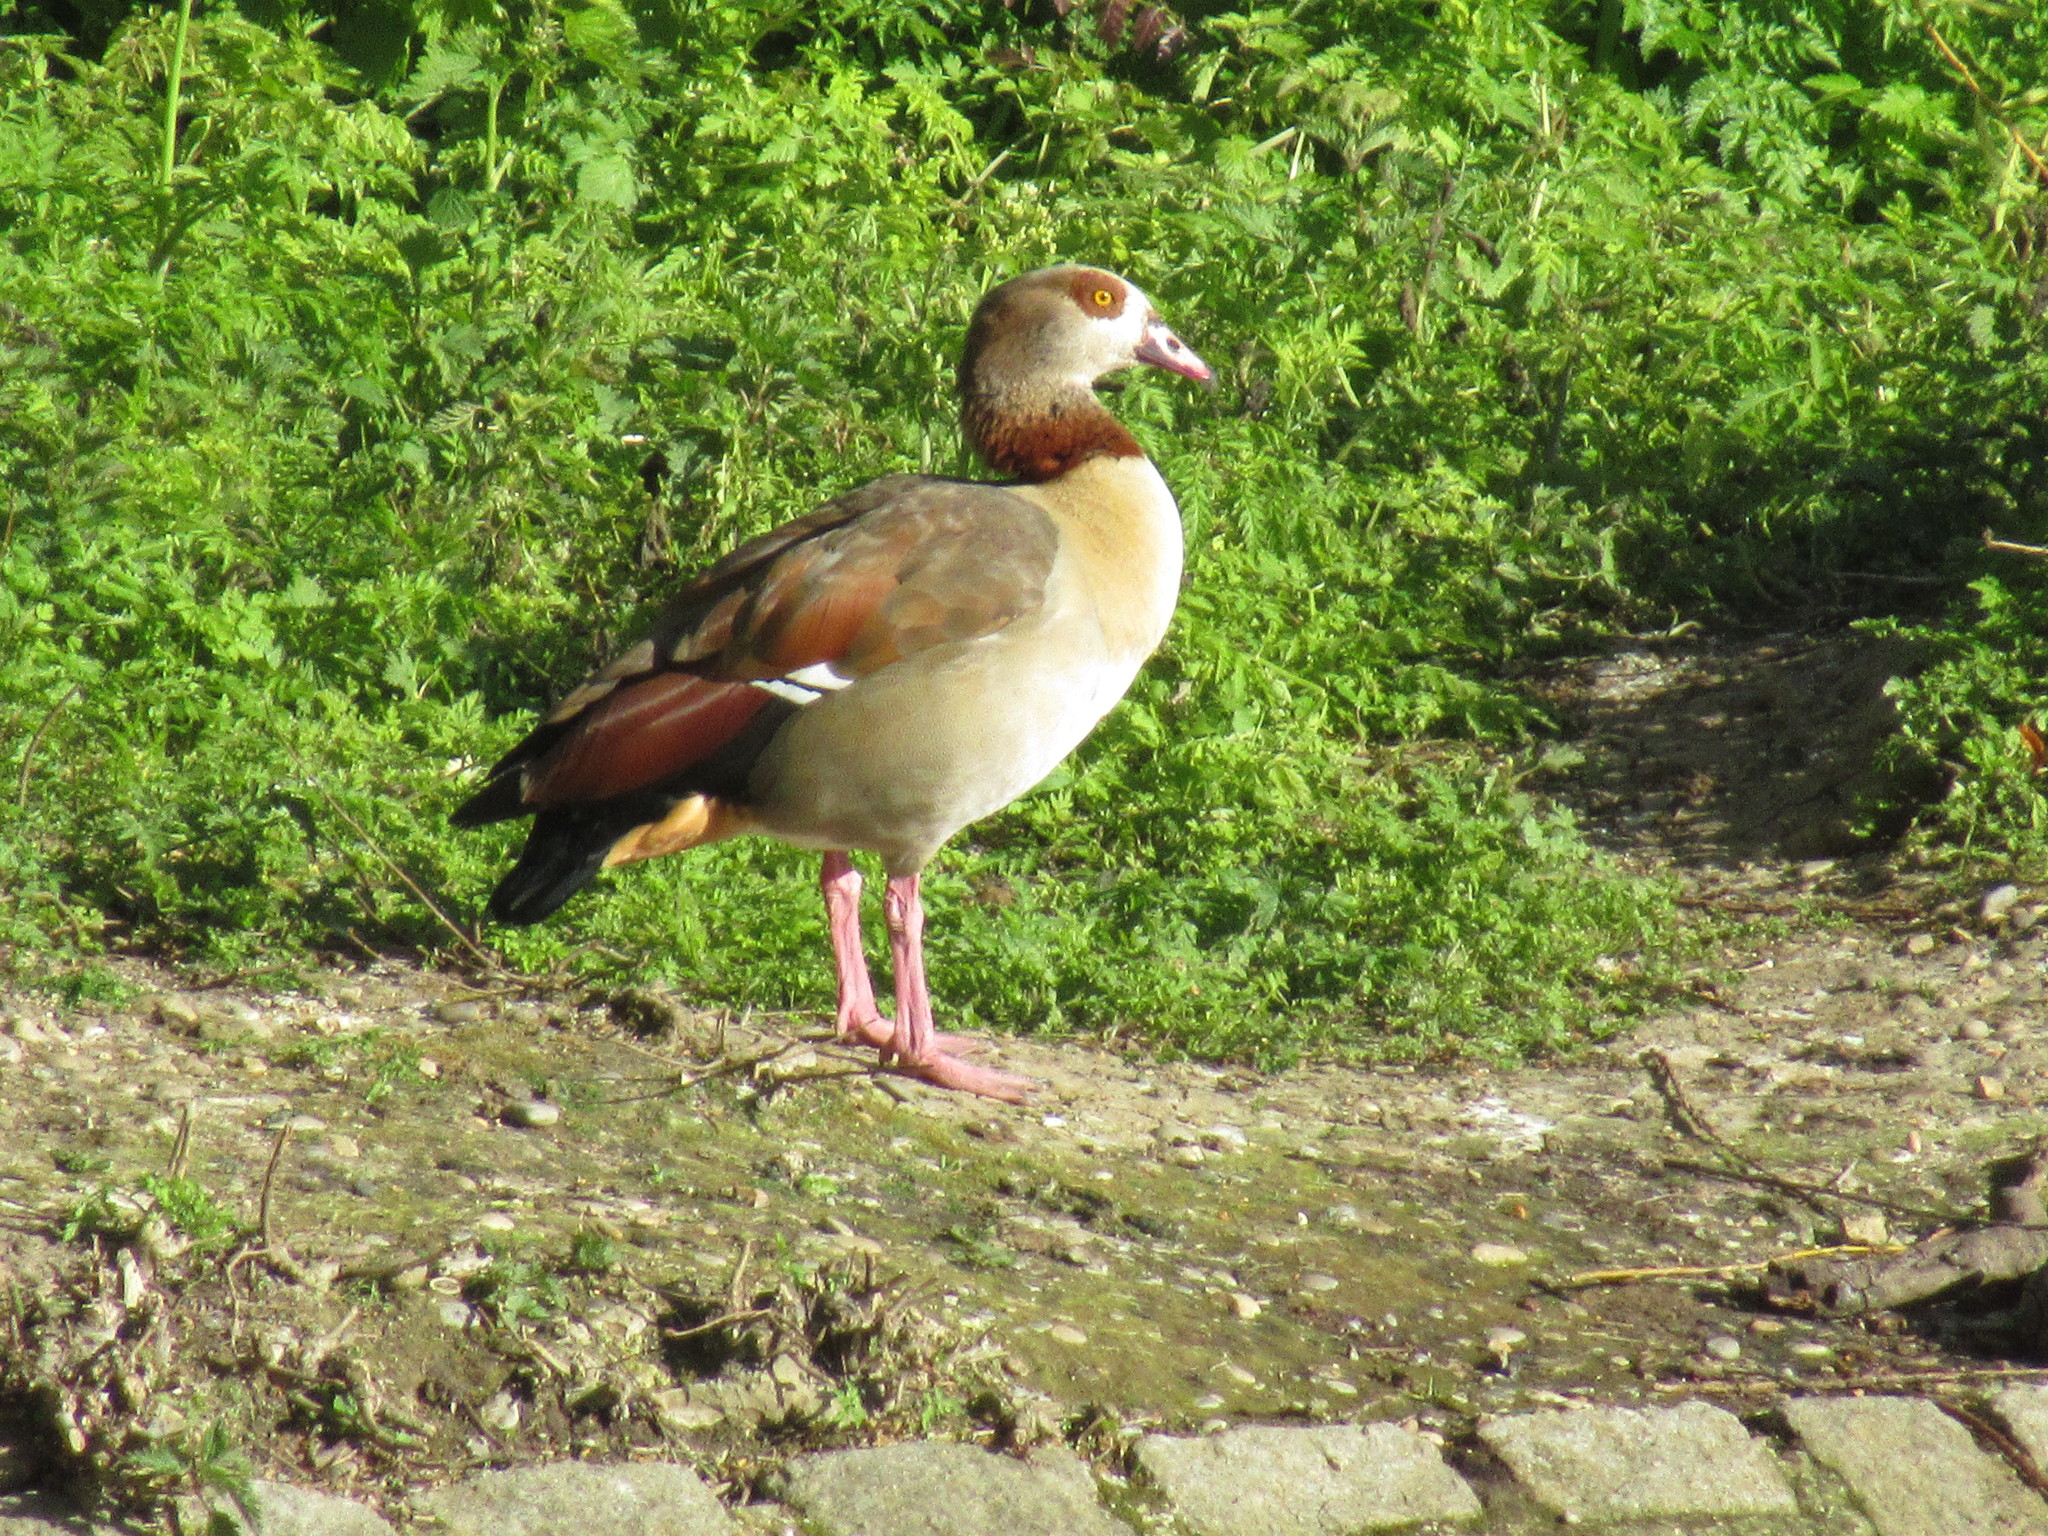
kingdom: Animalia
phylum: Chordata
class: Aves
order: Anseriformes
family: Anatidae
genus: Alopochen
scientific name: Alopochen aegyptiaca
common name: Egyptian goose
